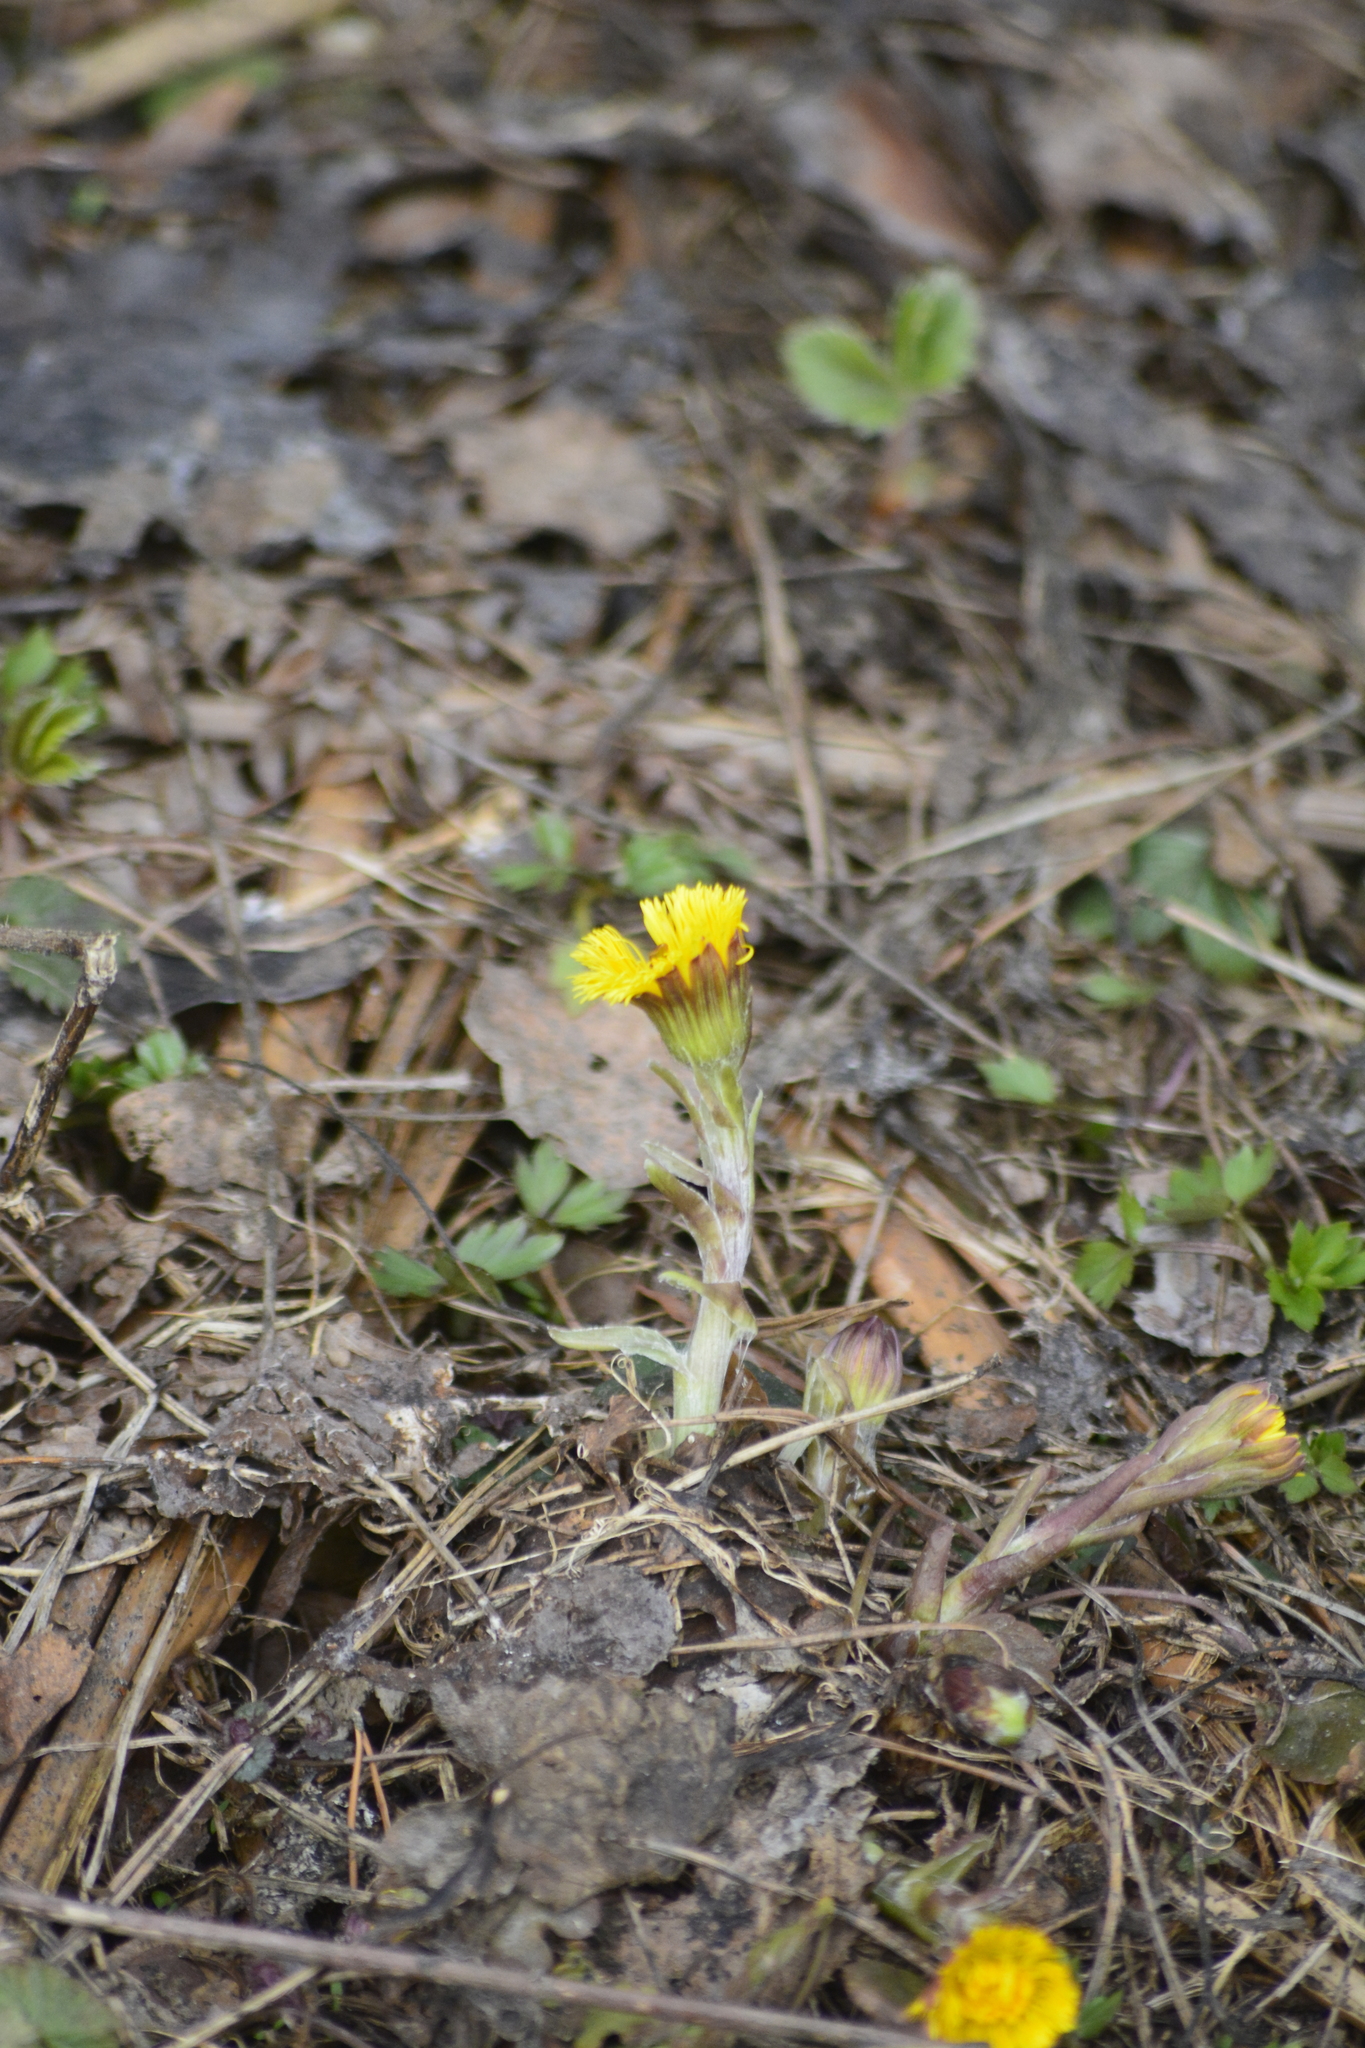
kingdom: Plantae
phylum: Tracheophyta
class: Magnoliopsida
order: Asterales
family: Asteraceae
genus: Tussilago
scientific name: Tussilago farfara
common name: Coltsfoot
